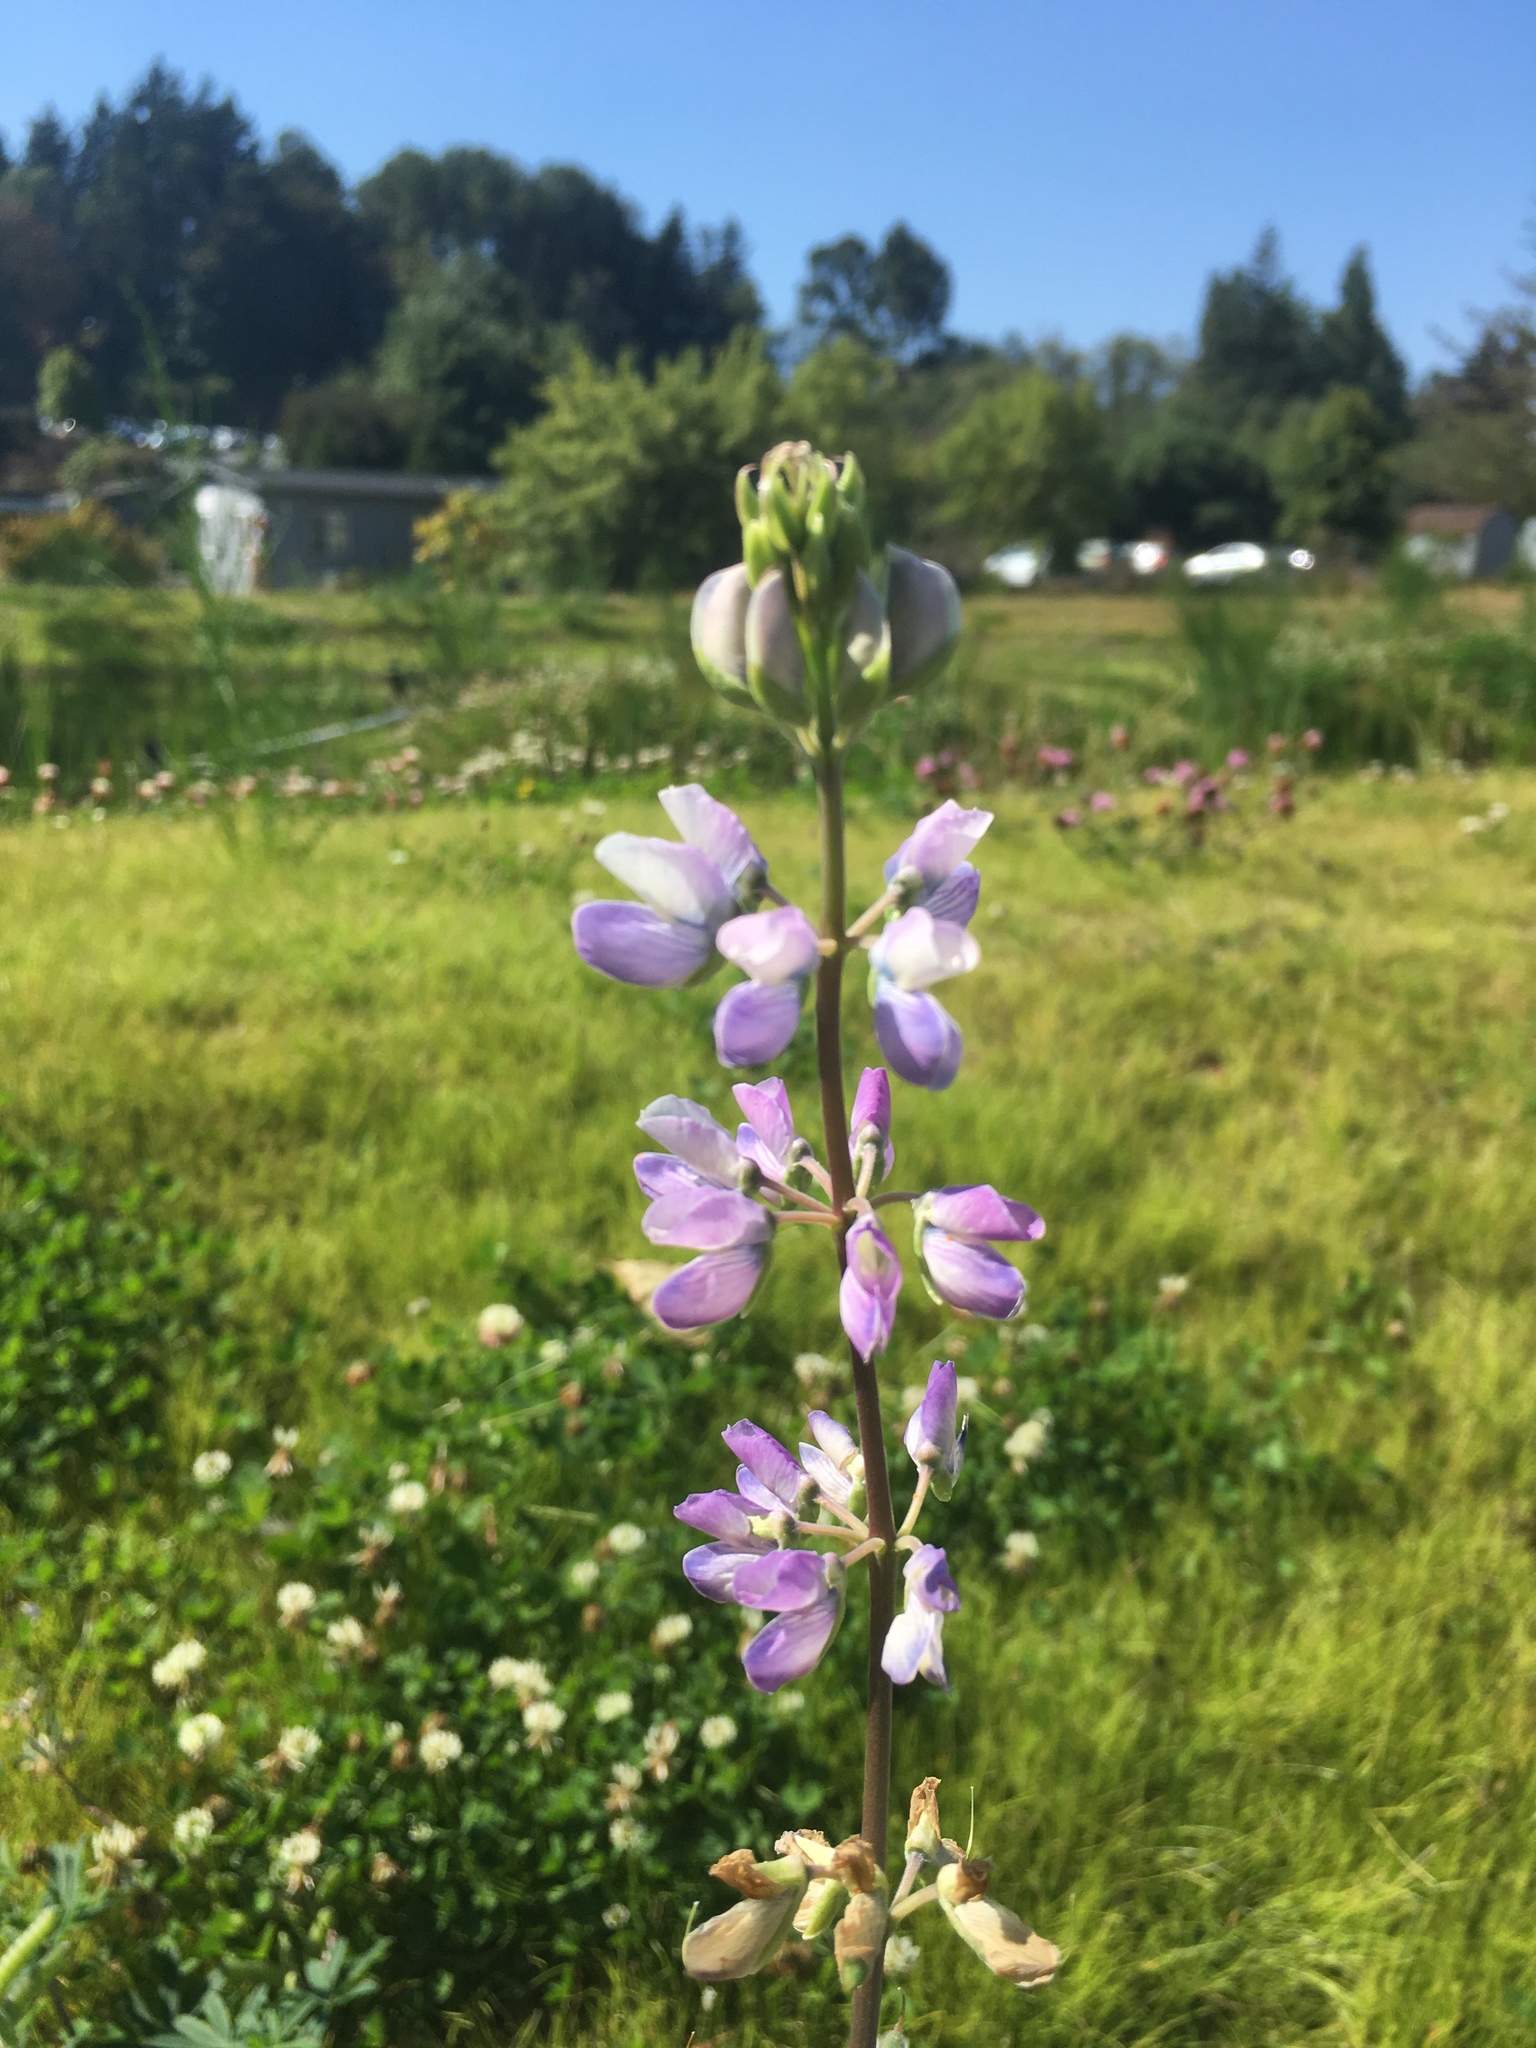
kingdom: Plantae
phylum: Tracheophyta
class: Magnoliopsida
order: Fabales
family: Fabaceae
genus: Lupinus
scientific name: Lupinus latifolius
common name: Broad-leaved lupine
